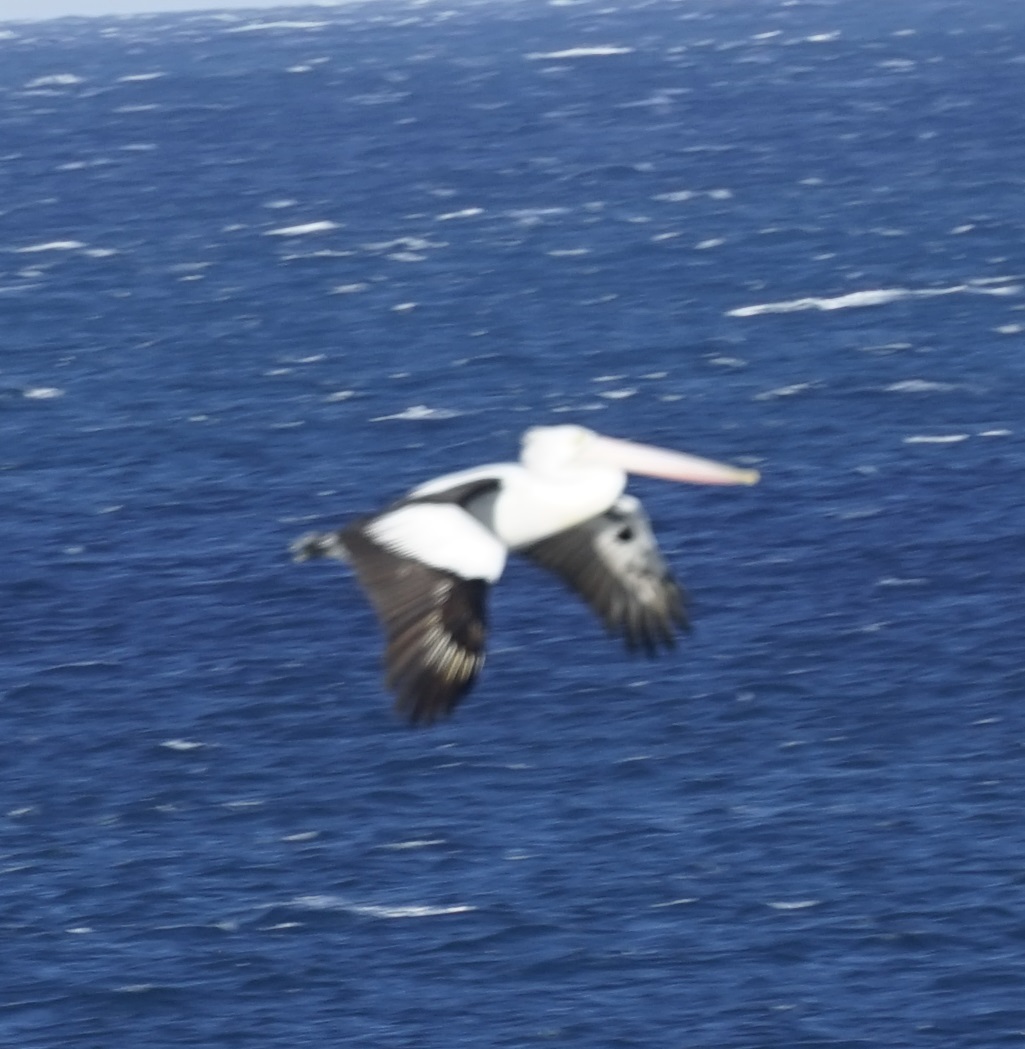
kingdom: Animalia
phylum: Chordata
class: Aves
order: Pelecaniformes
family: Pelecanidae
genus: Pelecanus
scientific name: Pelecanus conspicillatus
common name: Australian pelican
